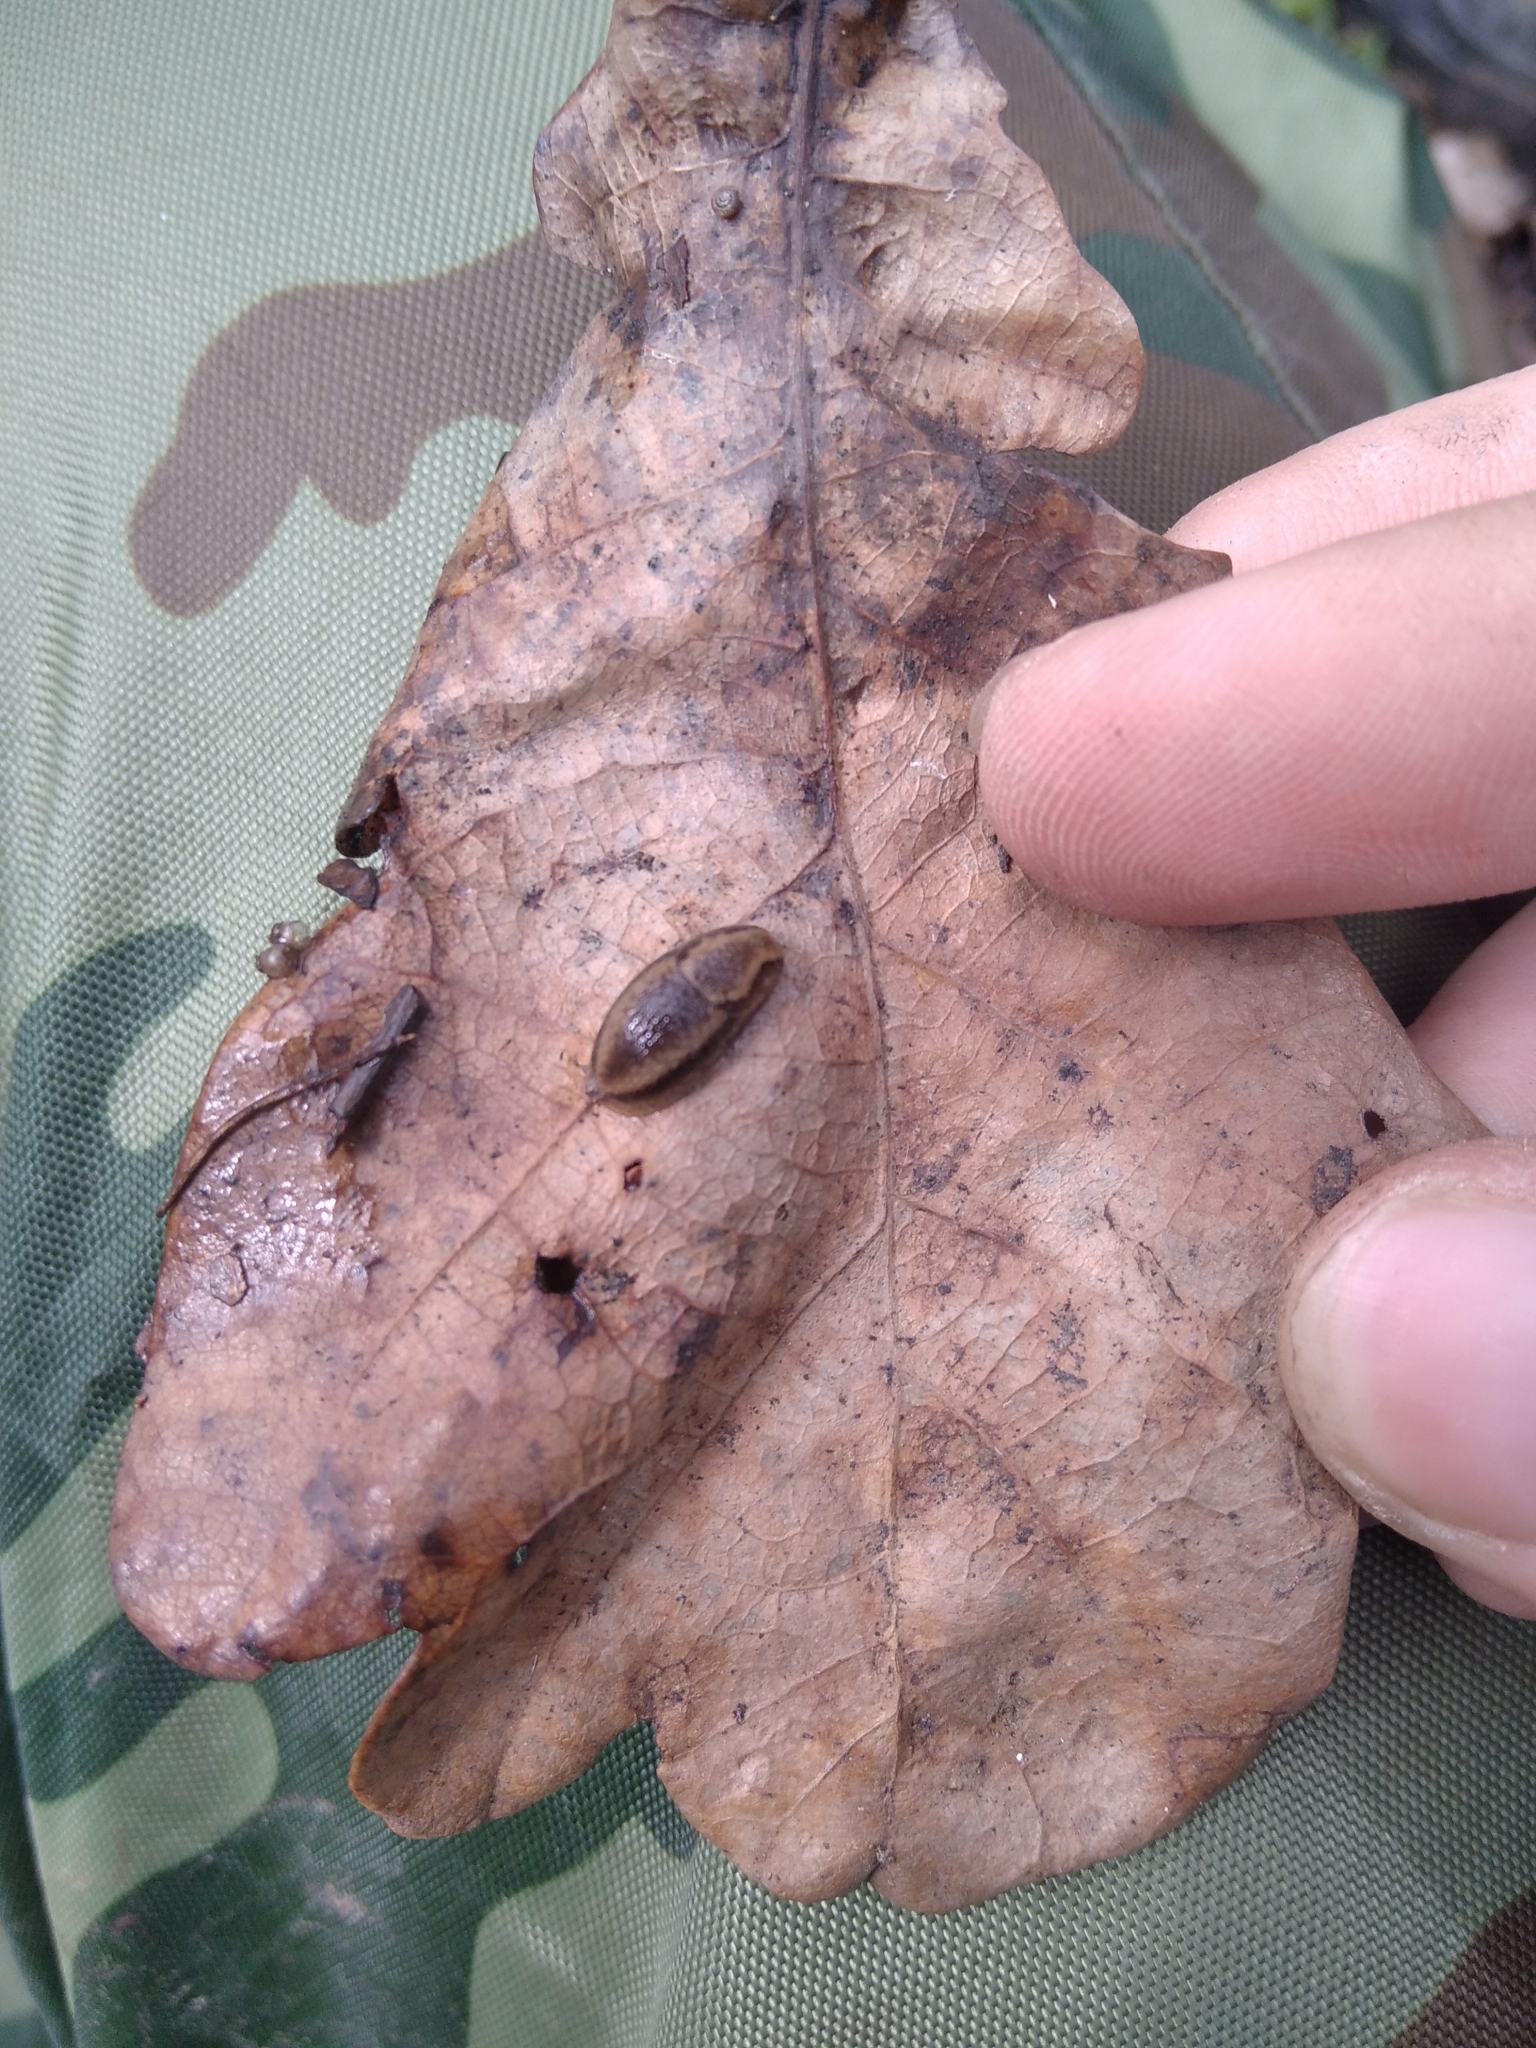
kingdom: Animalia
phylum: Mollusca
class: Gastropoda
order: Stylommatophora
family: Arionidae
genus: Arion
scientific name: Arion
